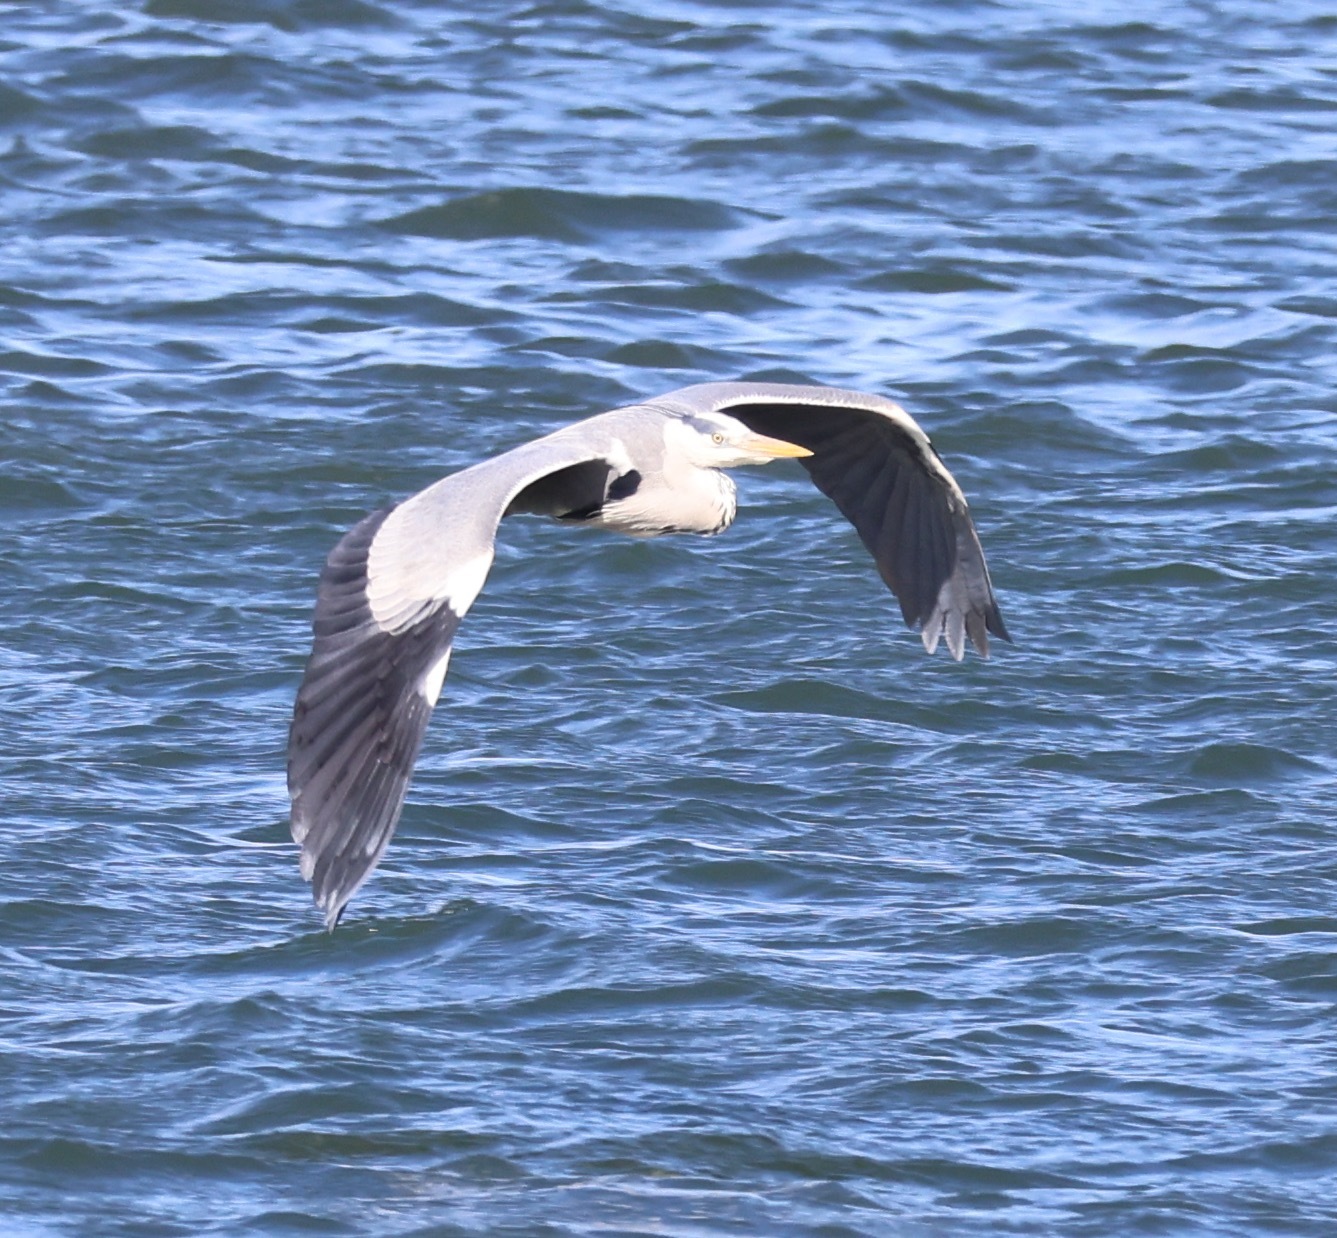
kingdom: Animalia
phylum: Chordata
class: Aves
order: Pelecaniformes
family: Ardeidae
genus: Ardea
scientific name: Ardea cinerea
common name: Grey heron
